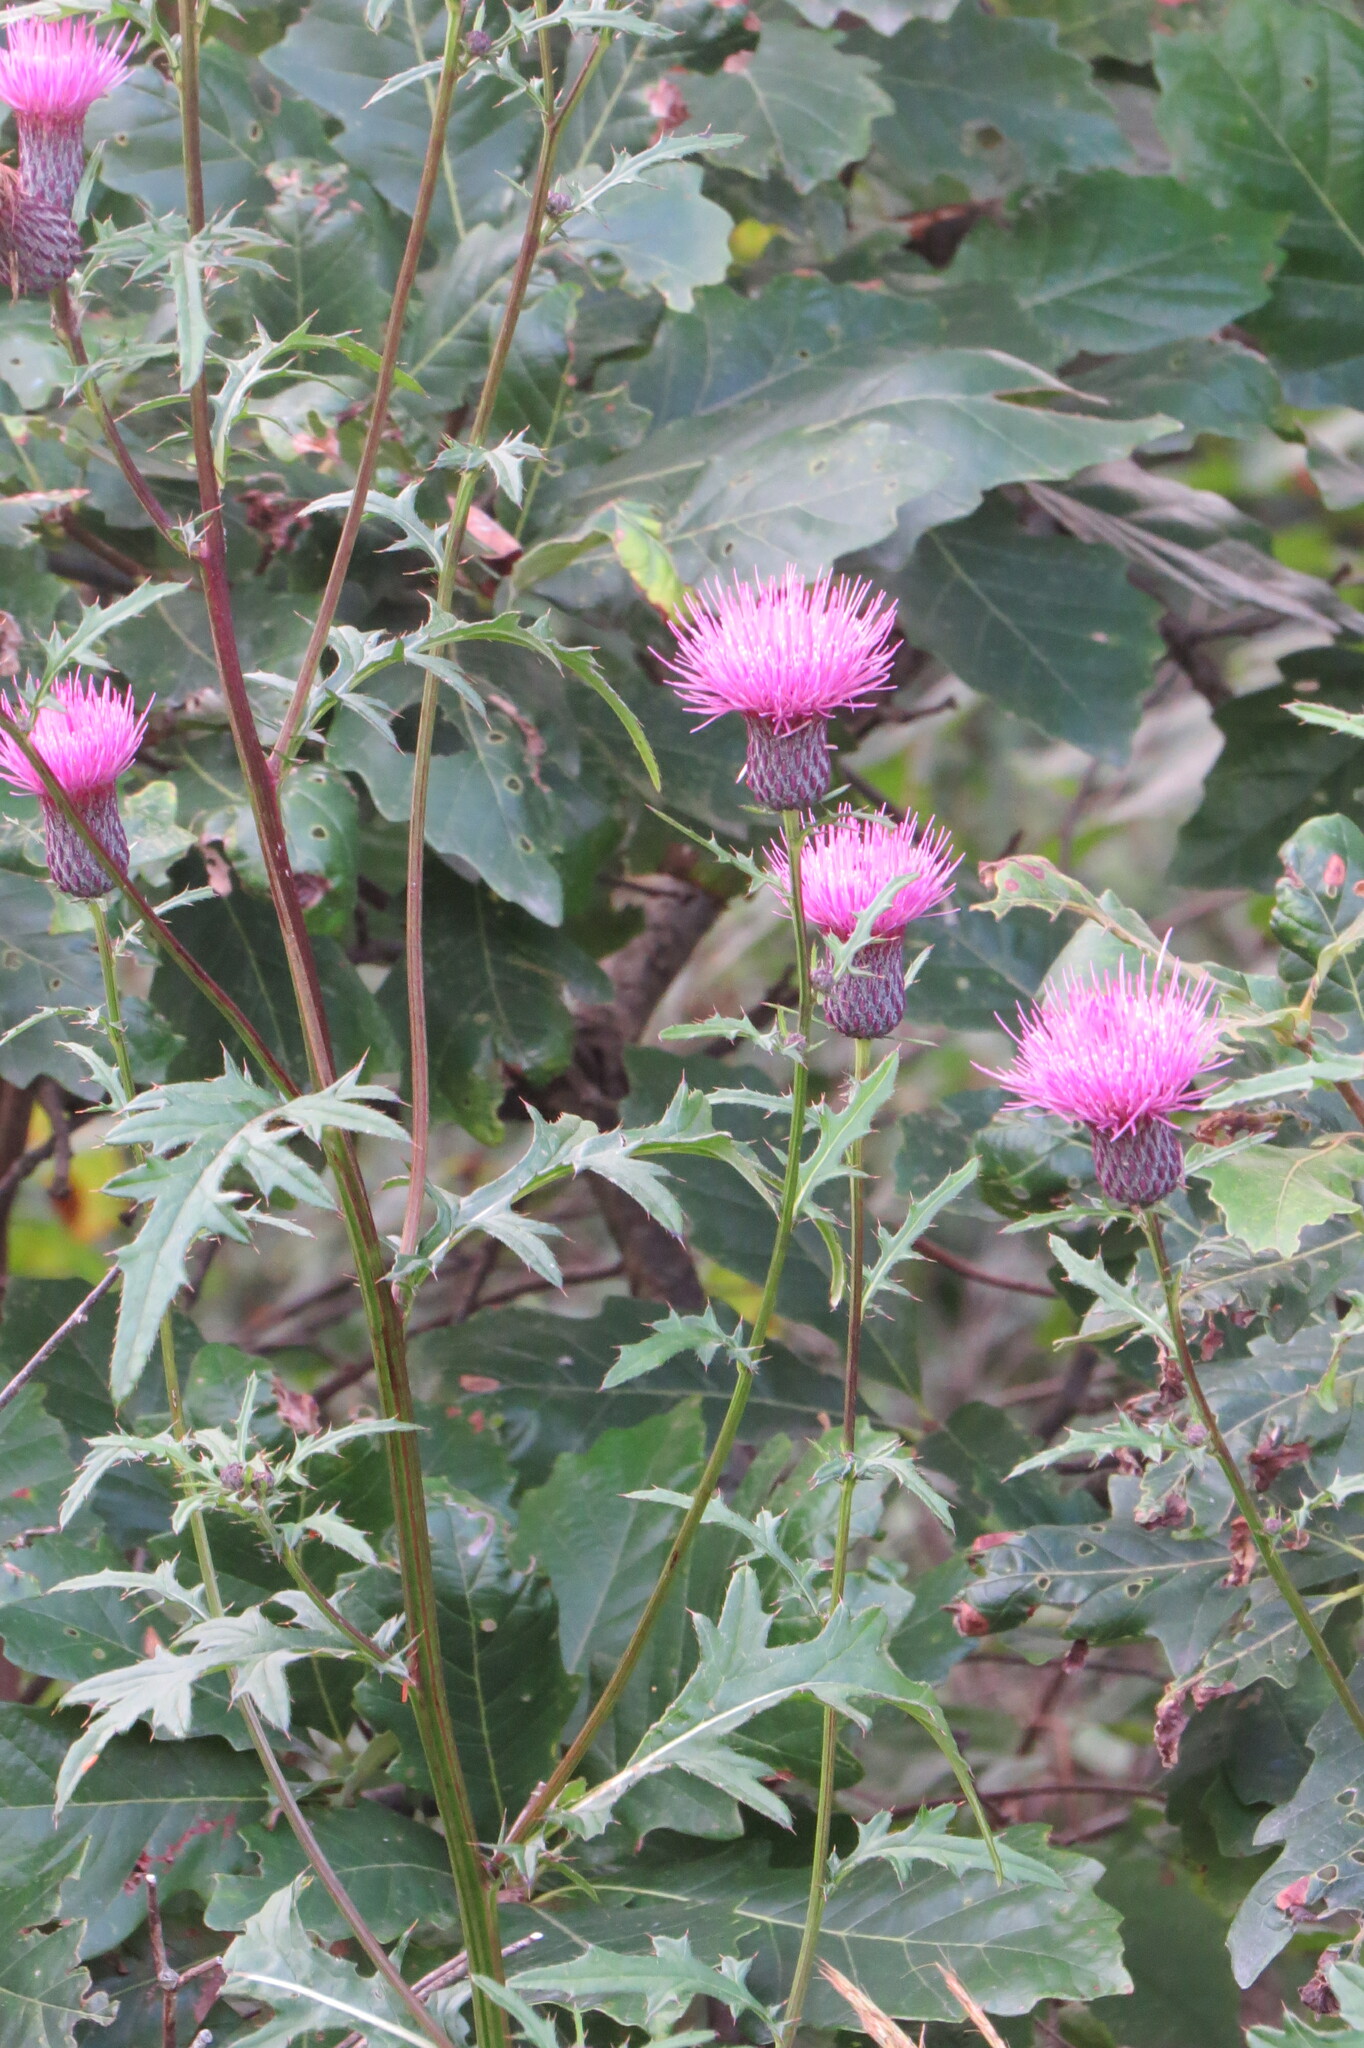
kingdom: Plantae
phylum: Tracheophyta
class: Magnoliopsida
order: Asterales
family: Asteraceae
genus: Cirsium
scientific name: Cirsium muticum
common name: Dunce-nettle
